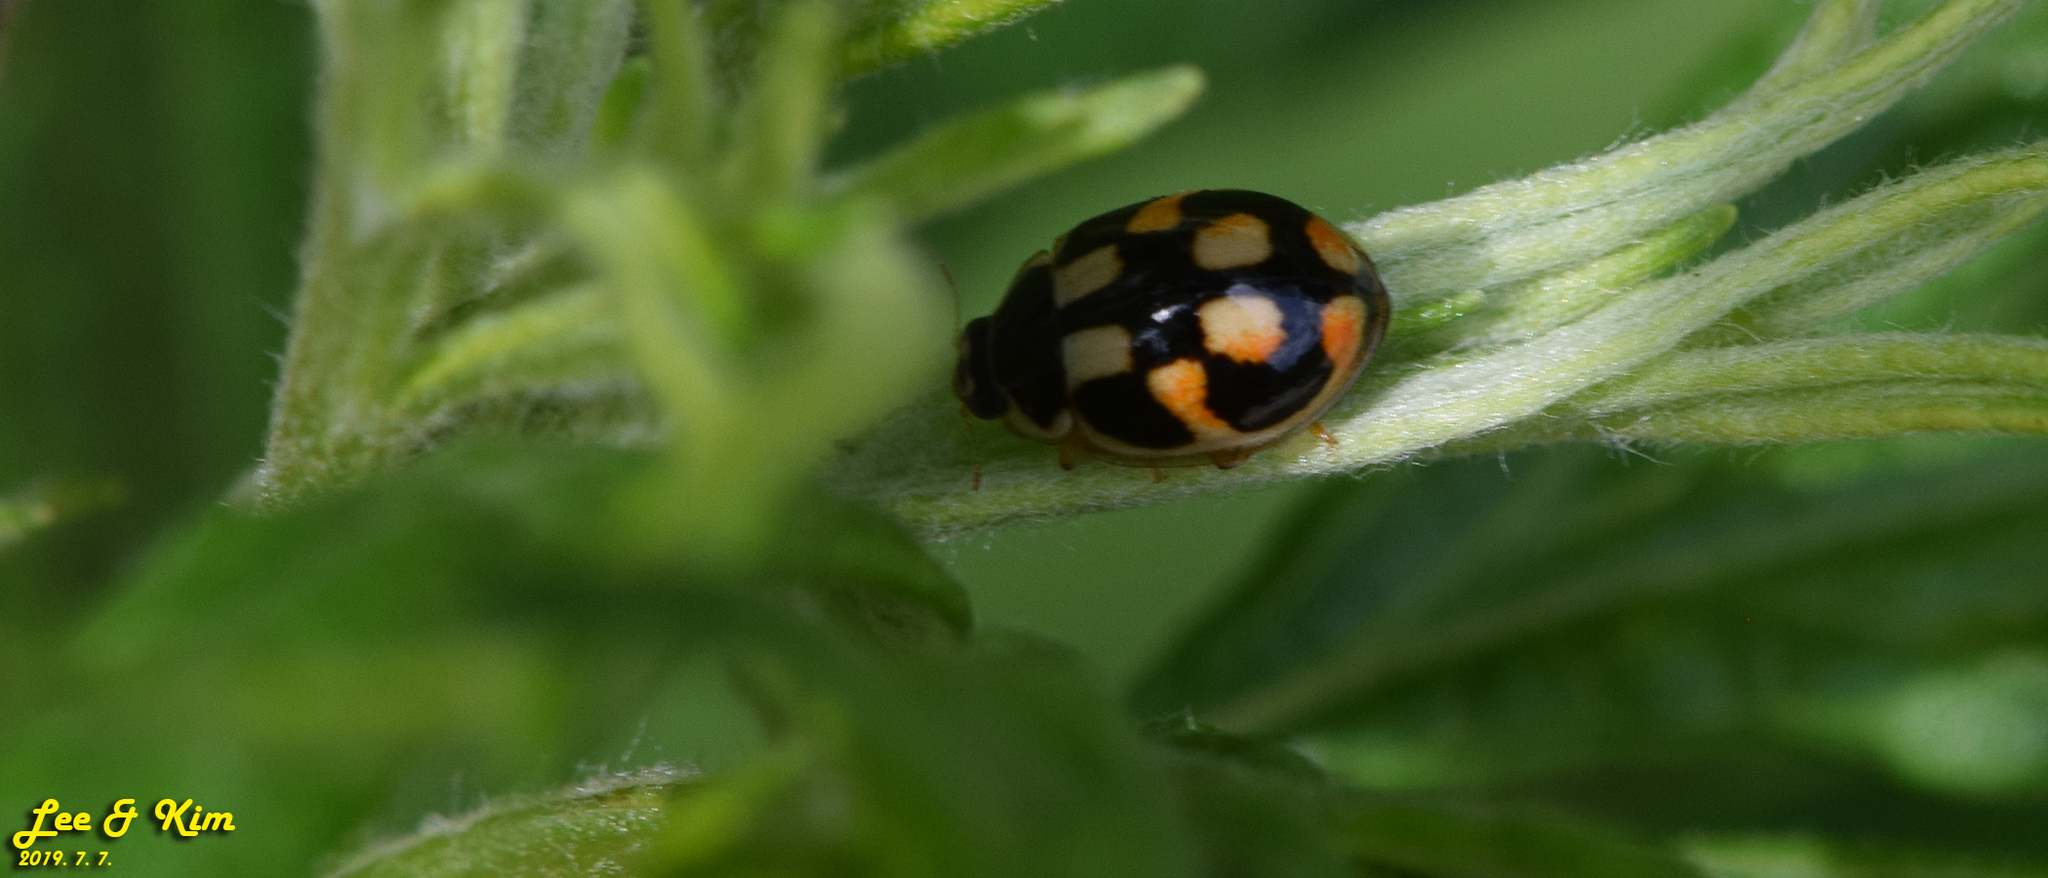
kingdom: Animalia
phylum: Arthropoda
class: Insecta
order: Coleoptera
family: Coccinellidae
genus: Propylea
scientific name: Propylea japonica
